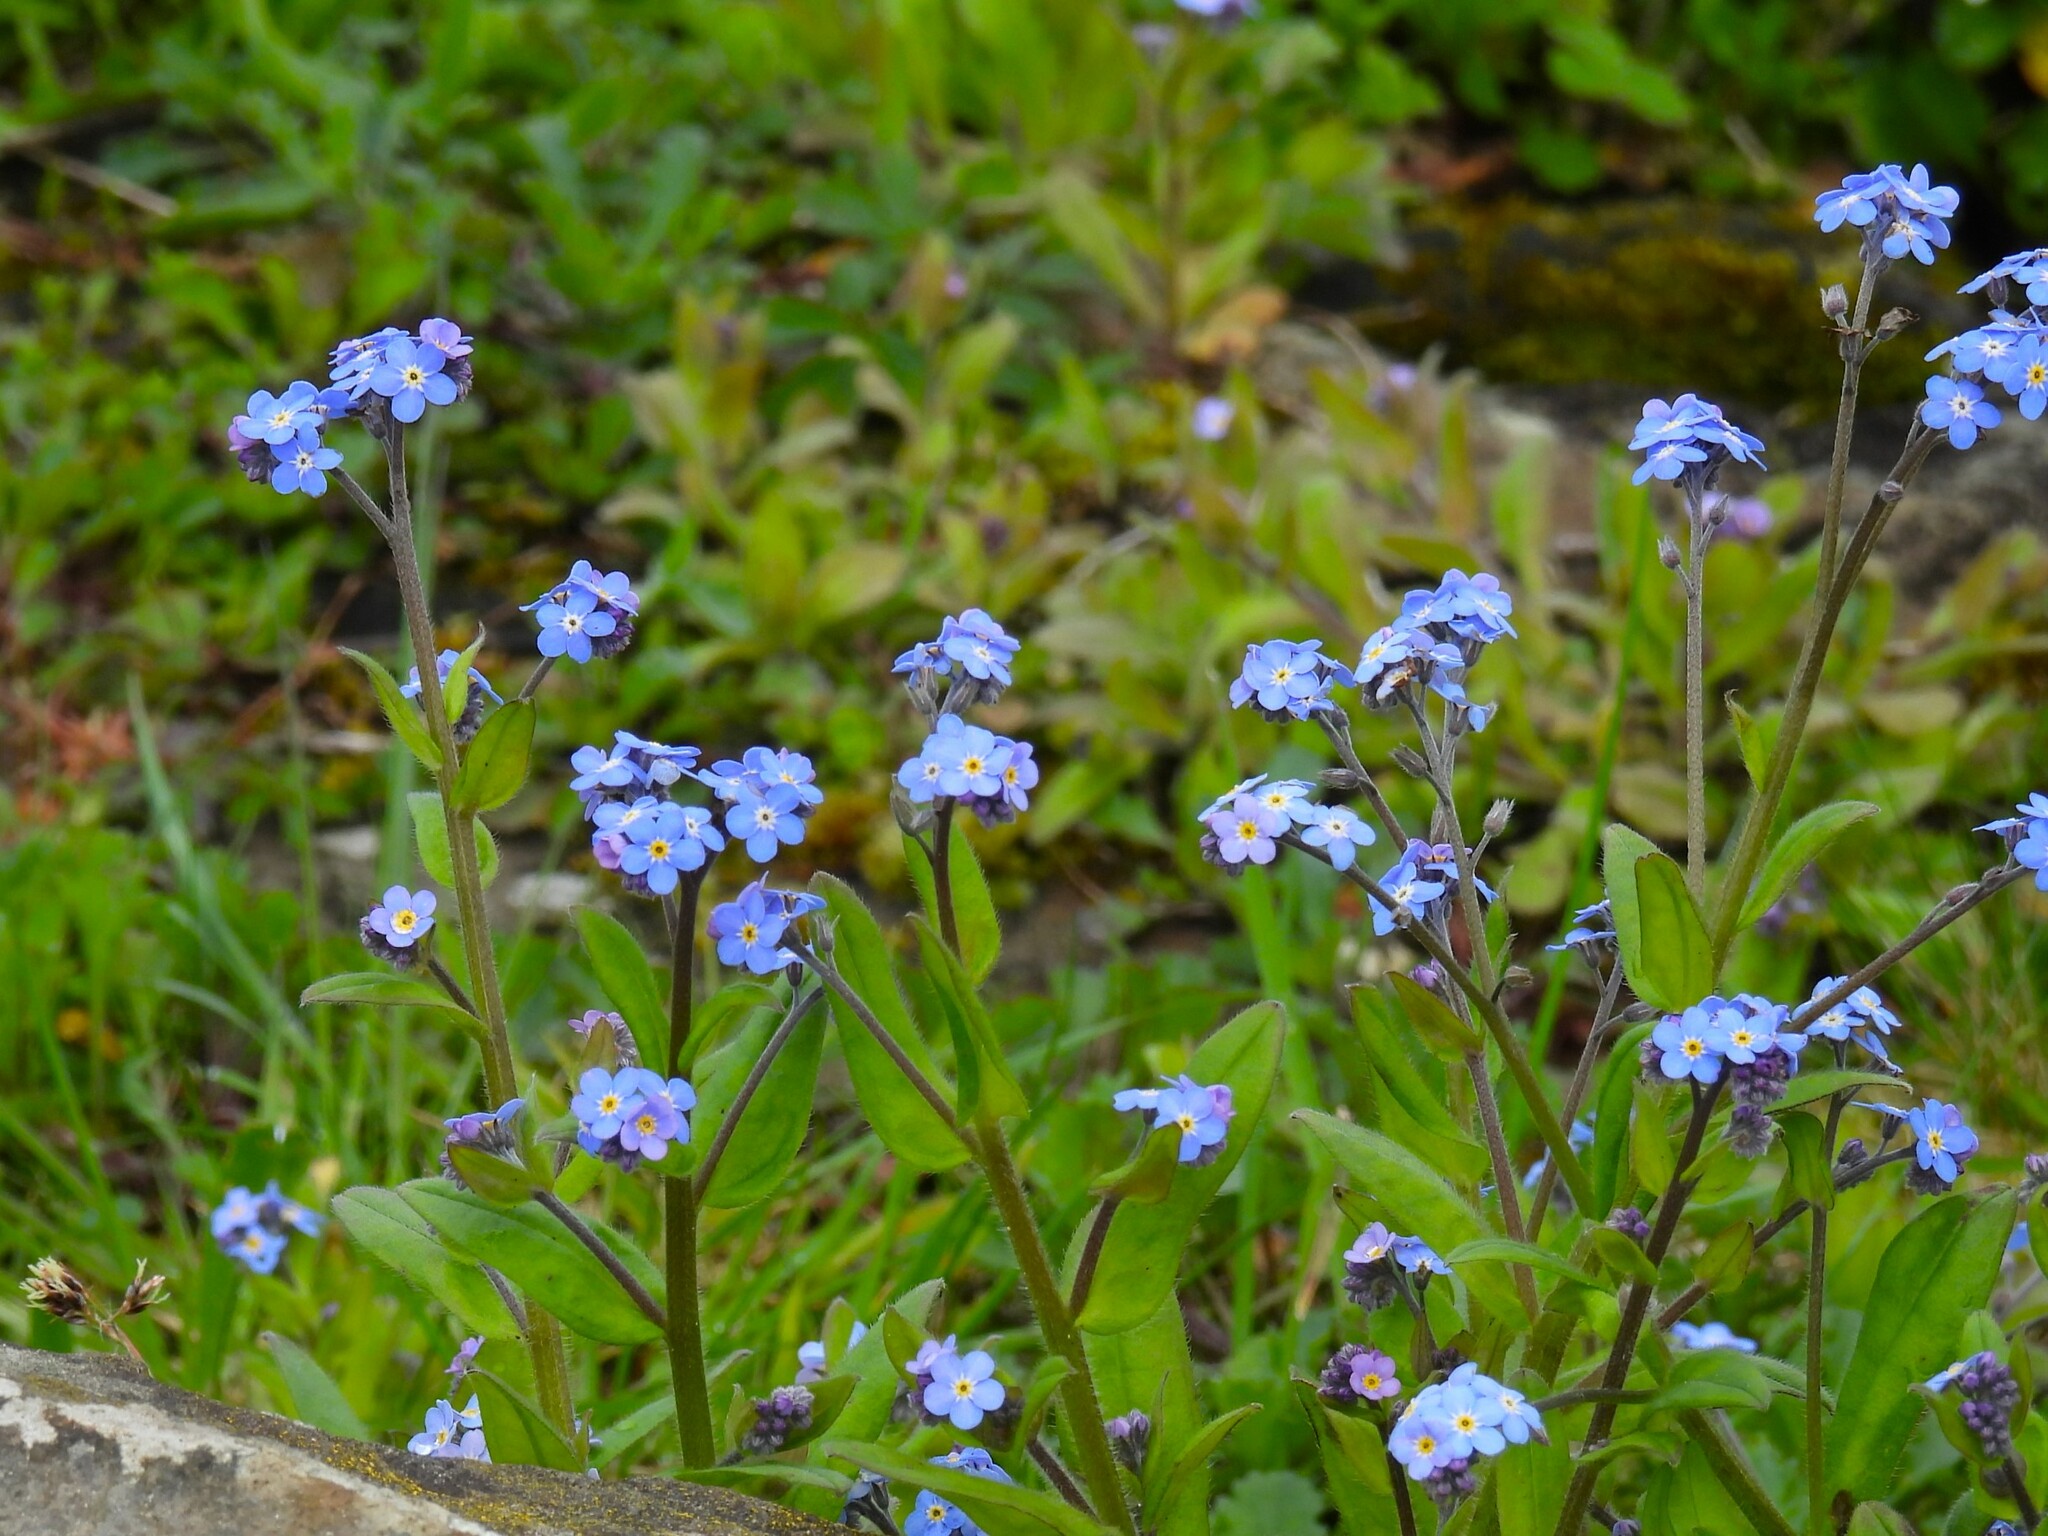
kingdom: Plantae
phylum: Tracheophyta
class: Magnoliopsida
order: Boraginales
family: Boraginaceae
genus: Myosotis
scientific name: Myosotis sylvatica
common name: Wood forget-me-not
